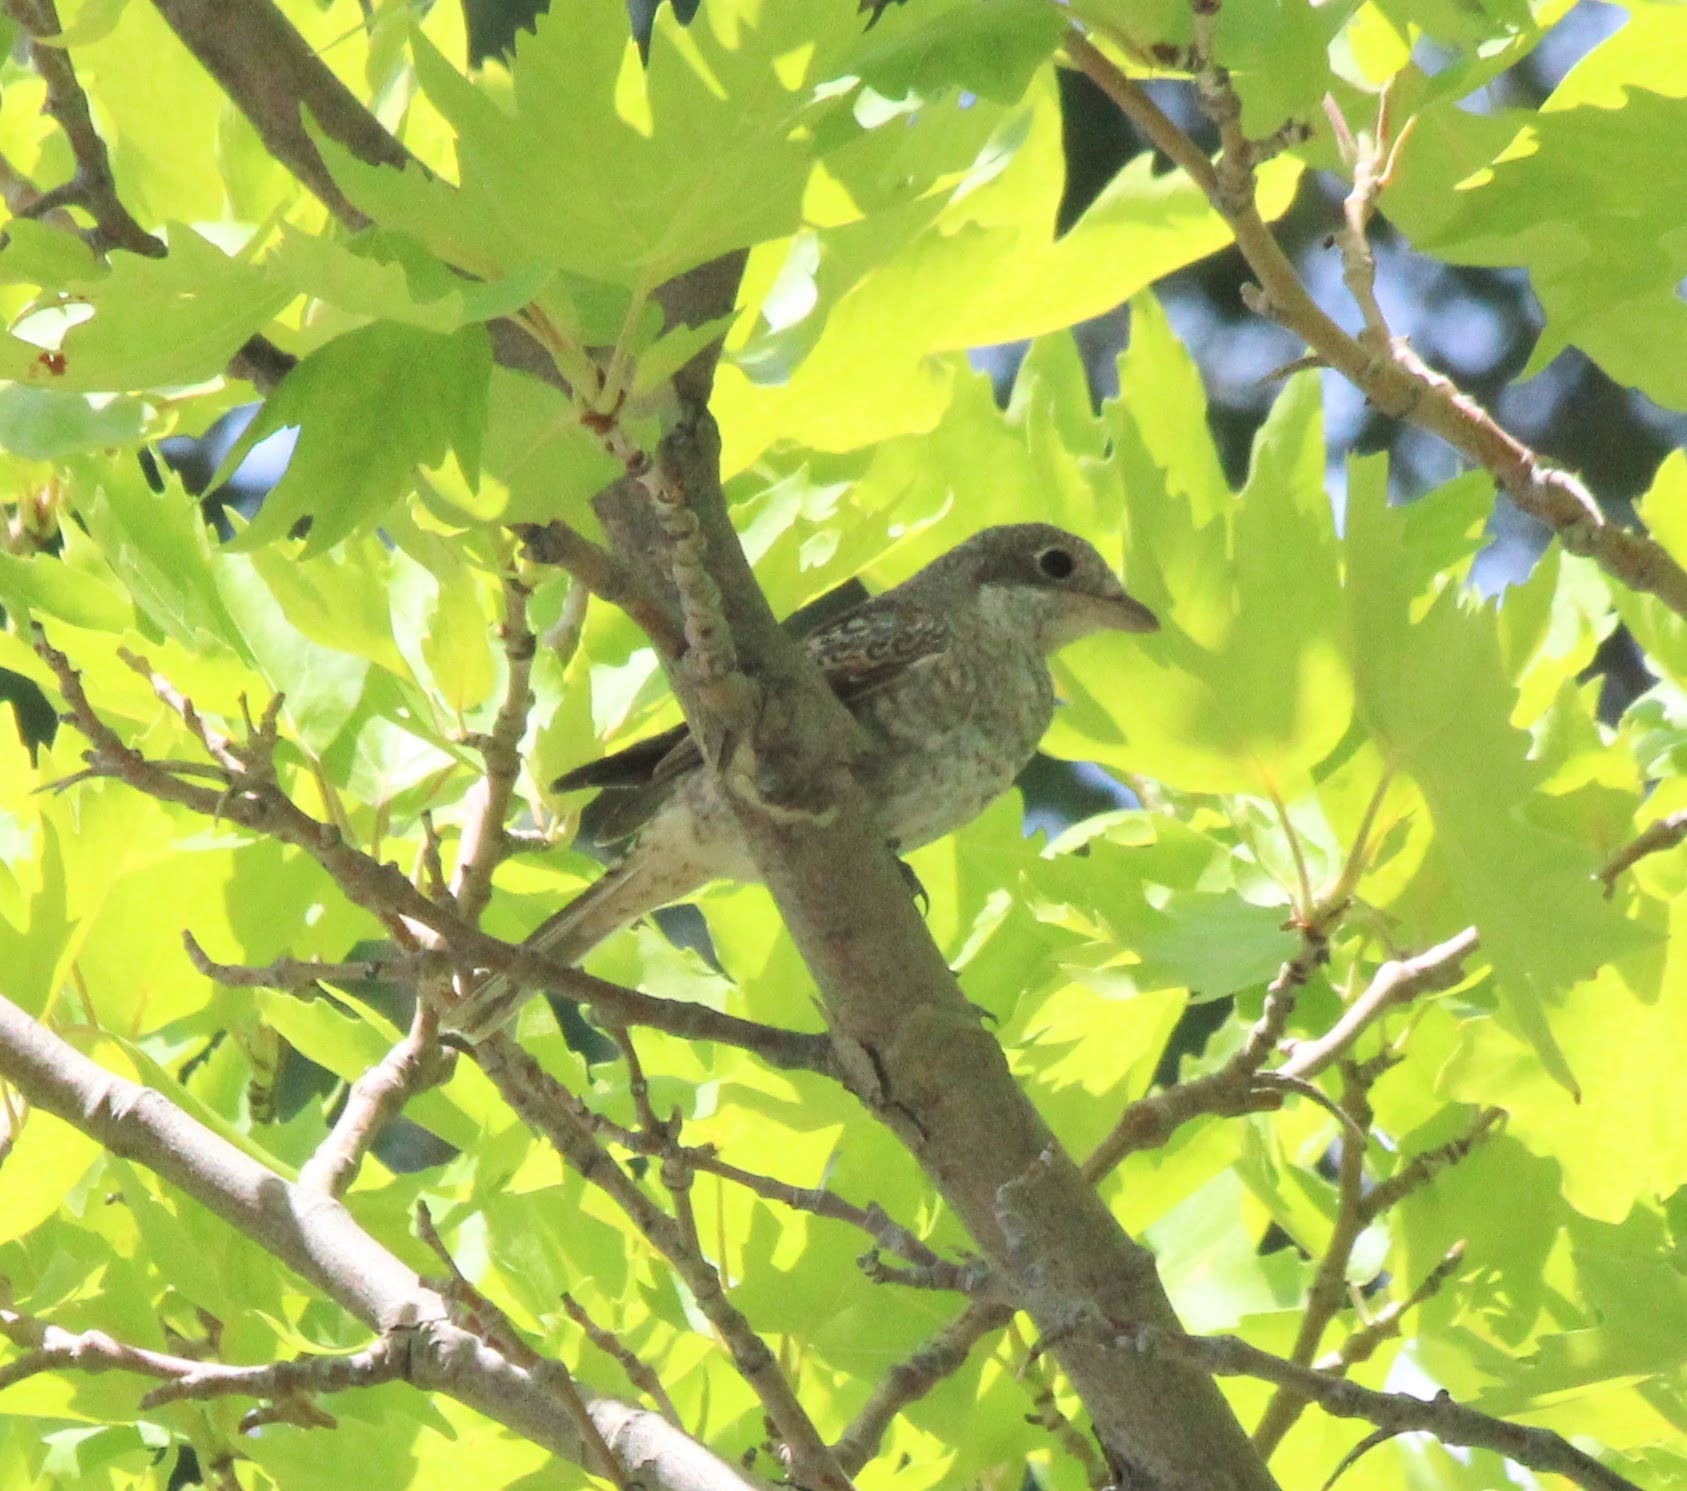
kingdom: Animalia
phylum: Chordata
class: Aves
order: Passeriformes
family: Laniidae
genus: Lanius
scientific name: Lanius senator
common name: Woodchat shrike
